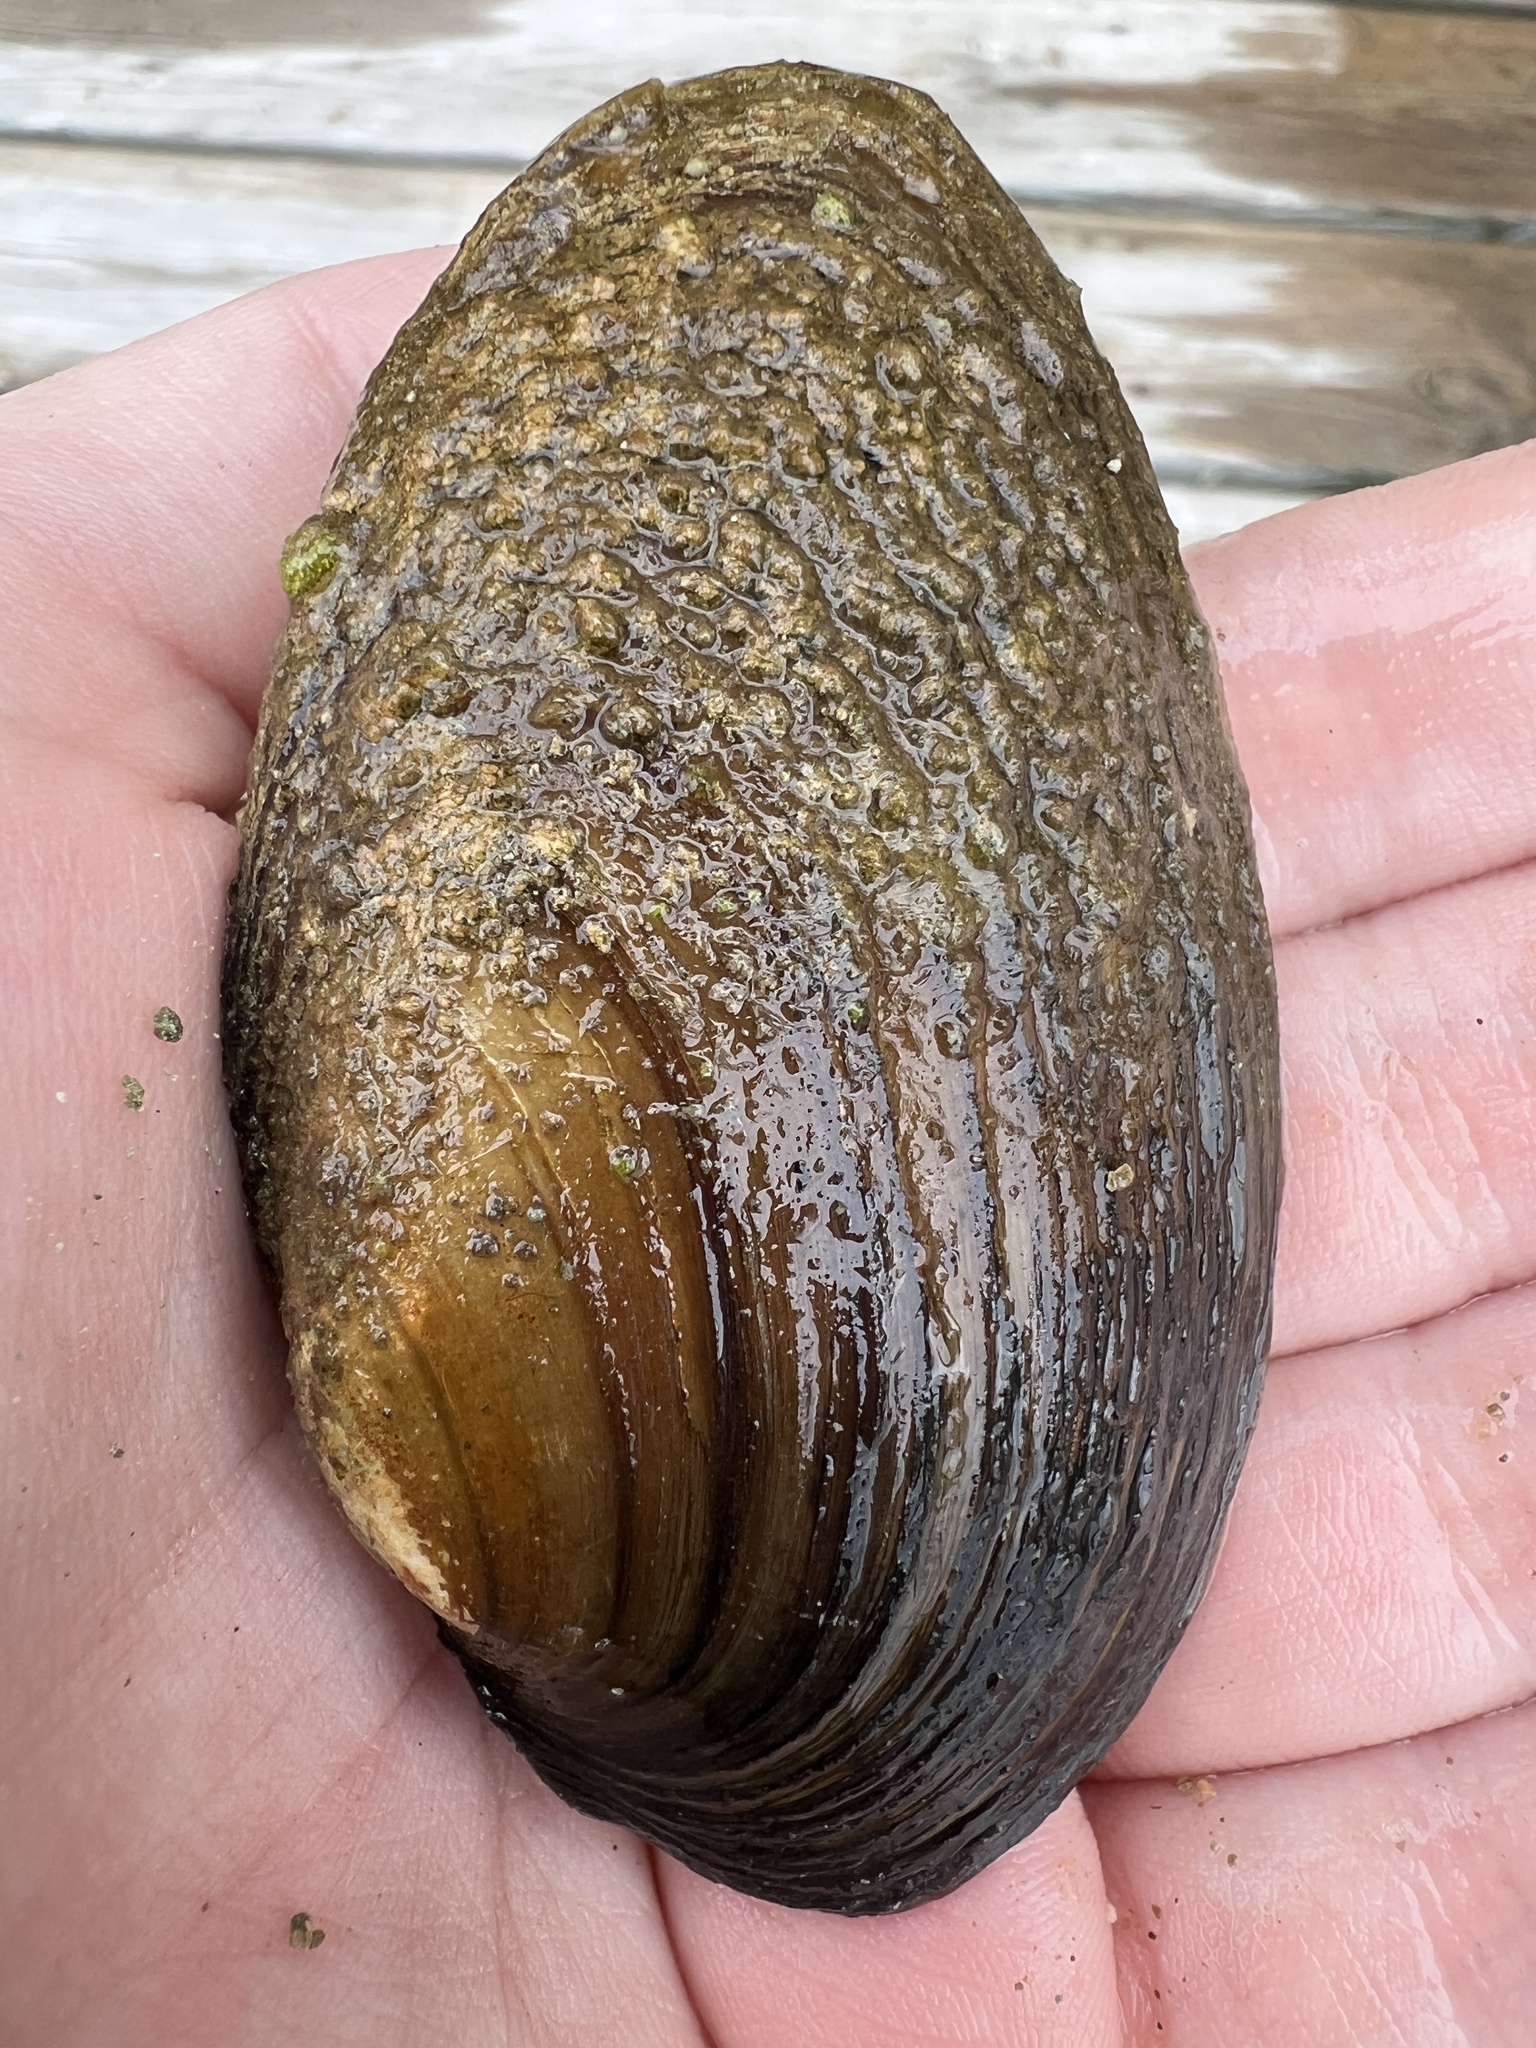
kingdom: Animalia
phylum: Mollusca
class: Bivalvia
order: Unionida
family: Unionidae
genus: Pyganodon
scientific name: Pyganodon grandis
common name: Giant floater
